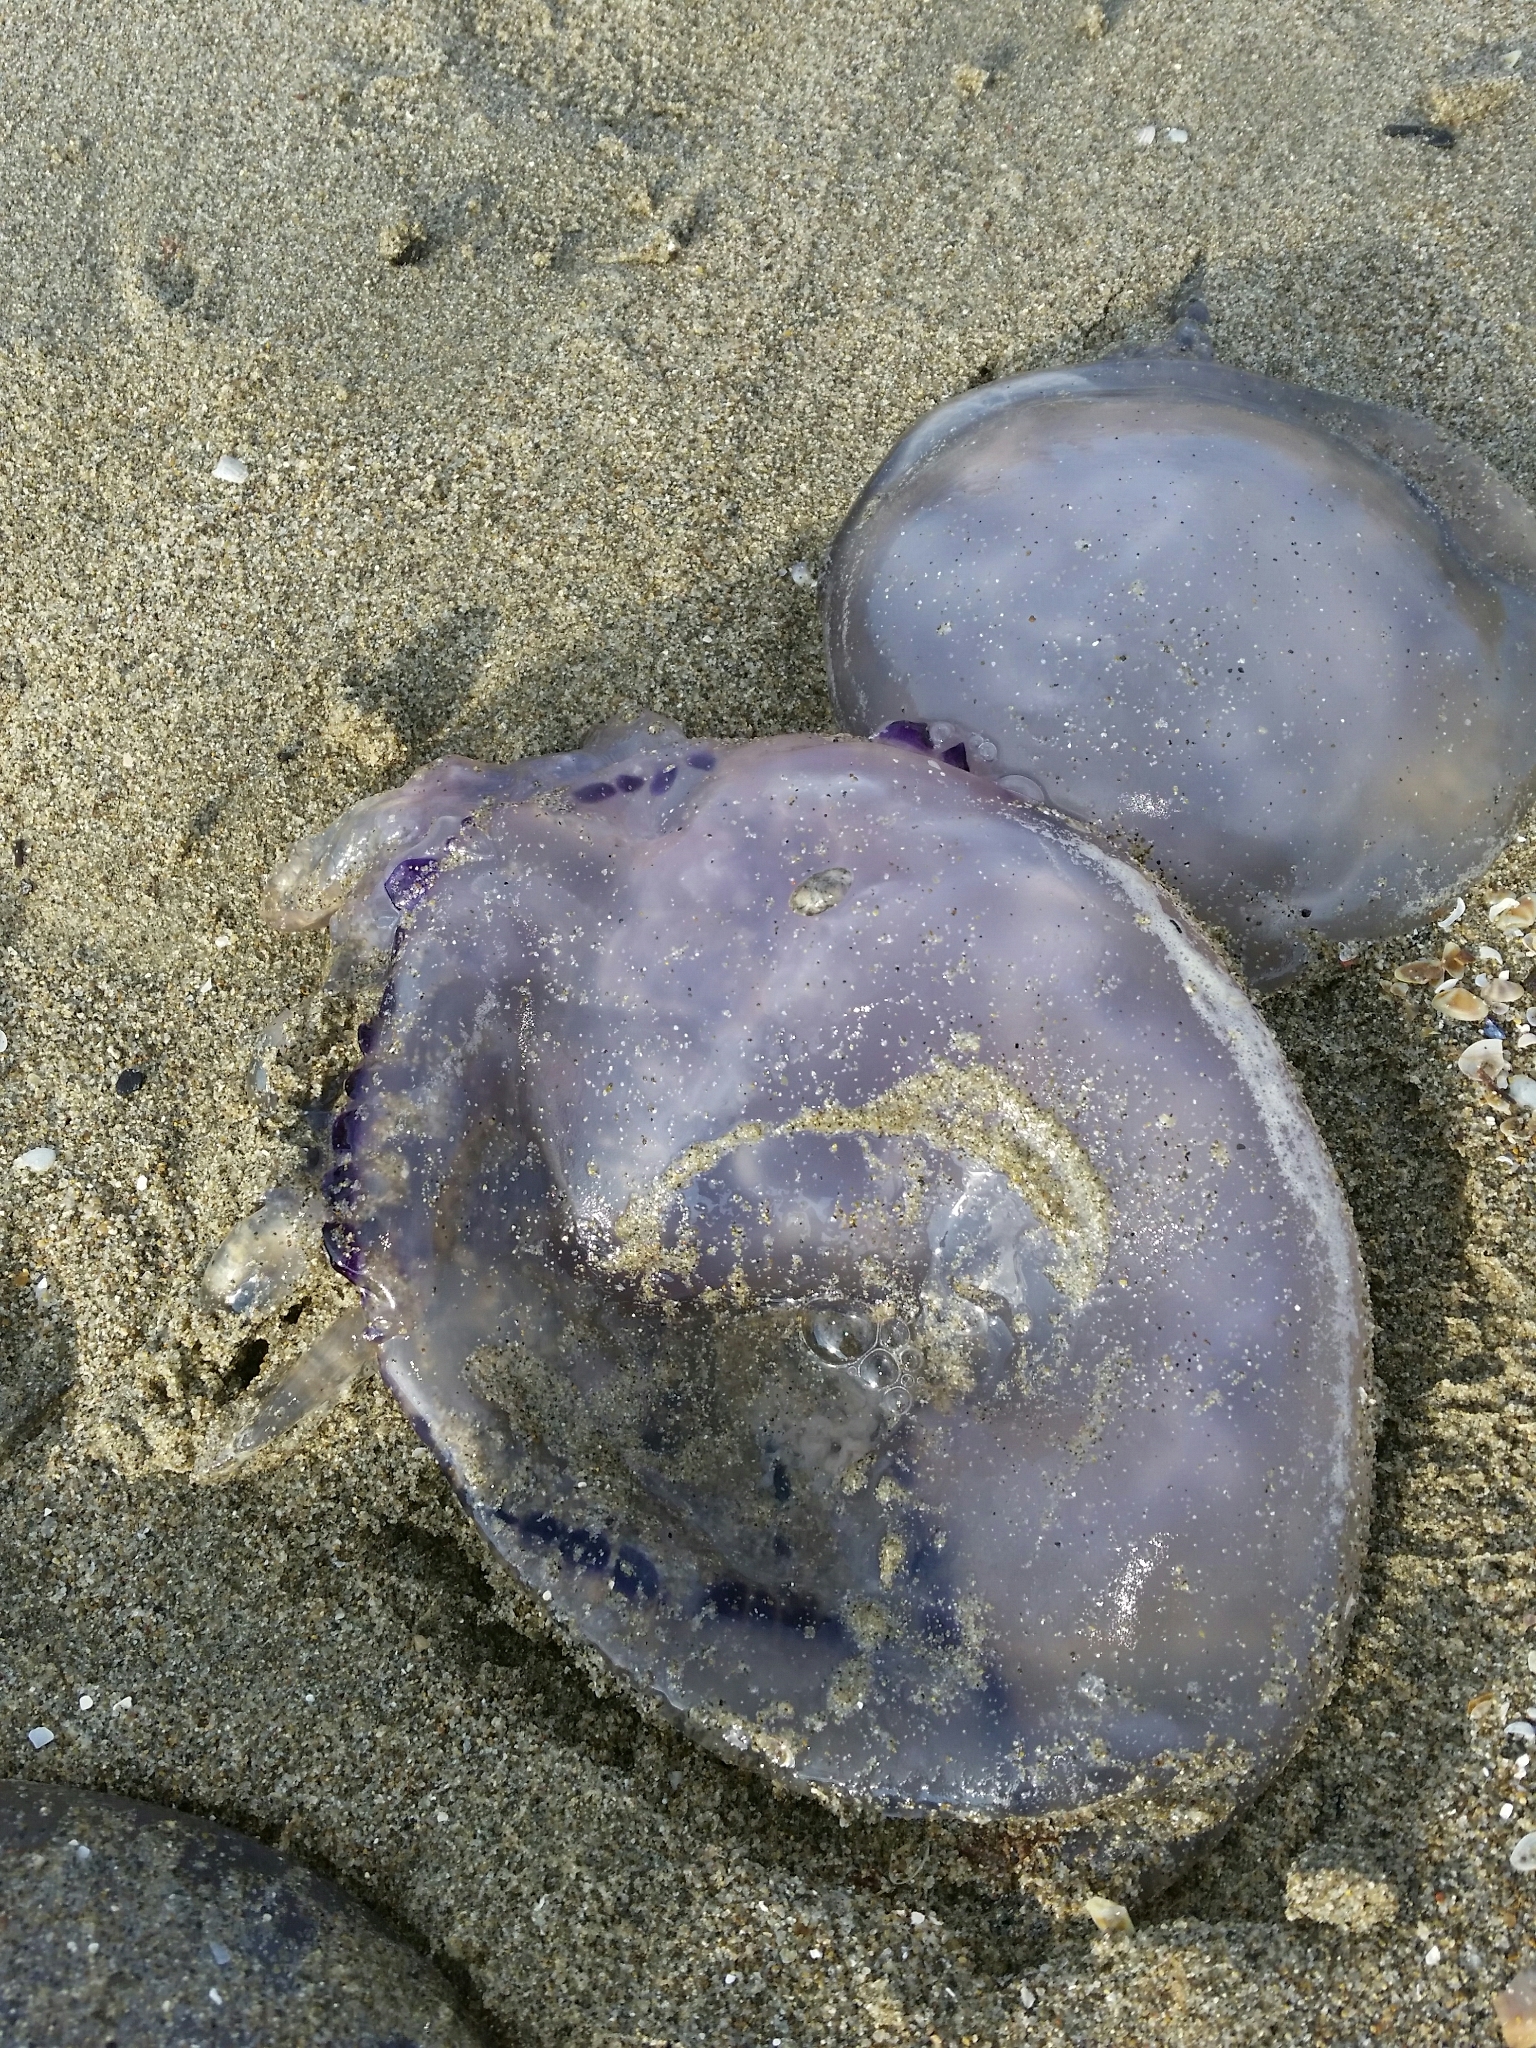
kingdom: Animalia
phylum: Cnidaria
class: Scyphozoa
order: Rhizostomeae
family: Rhizostomatidae
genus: Rhizostoma
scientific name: Rhizostoma pulmo
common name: Barrel jellyfish
